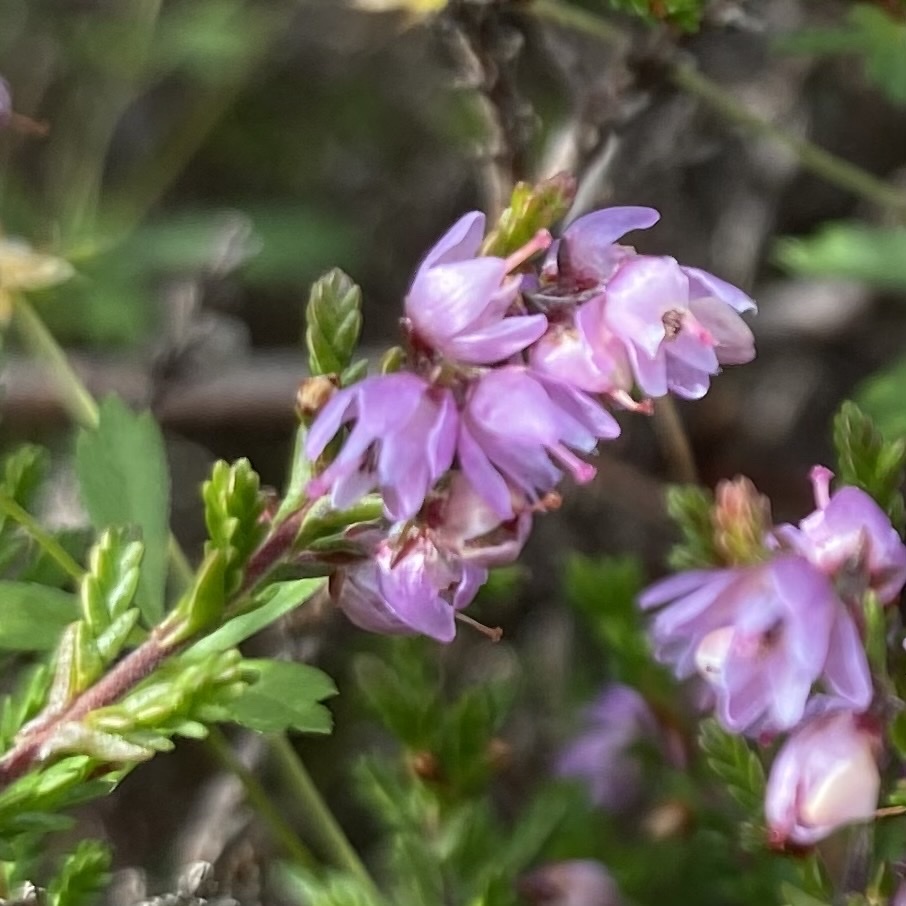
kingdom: Plantae
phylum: Tracheophyta
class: Magnoliopsida
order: Ericales
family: Ericaceae
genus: Calluna
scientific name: Calluna vulgaris
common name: Heather
